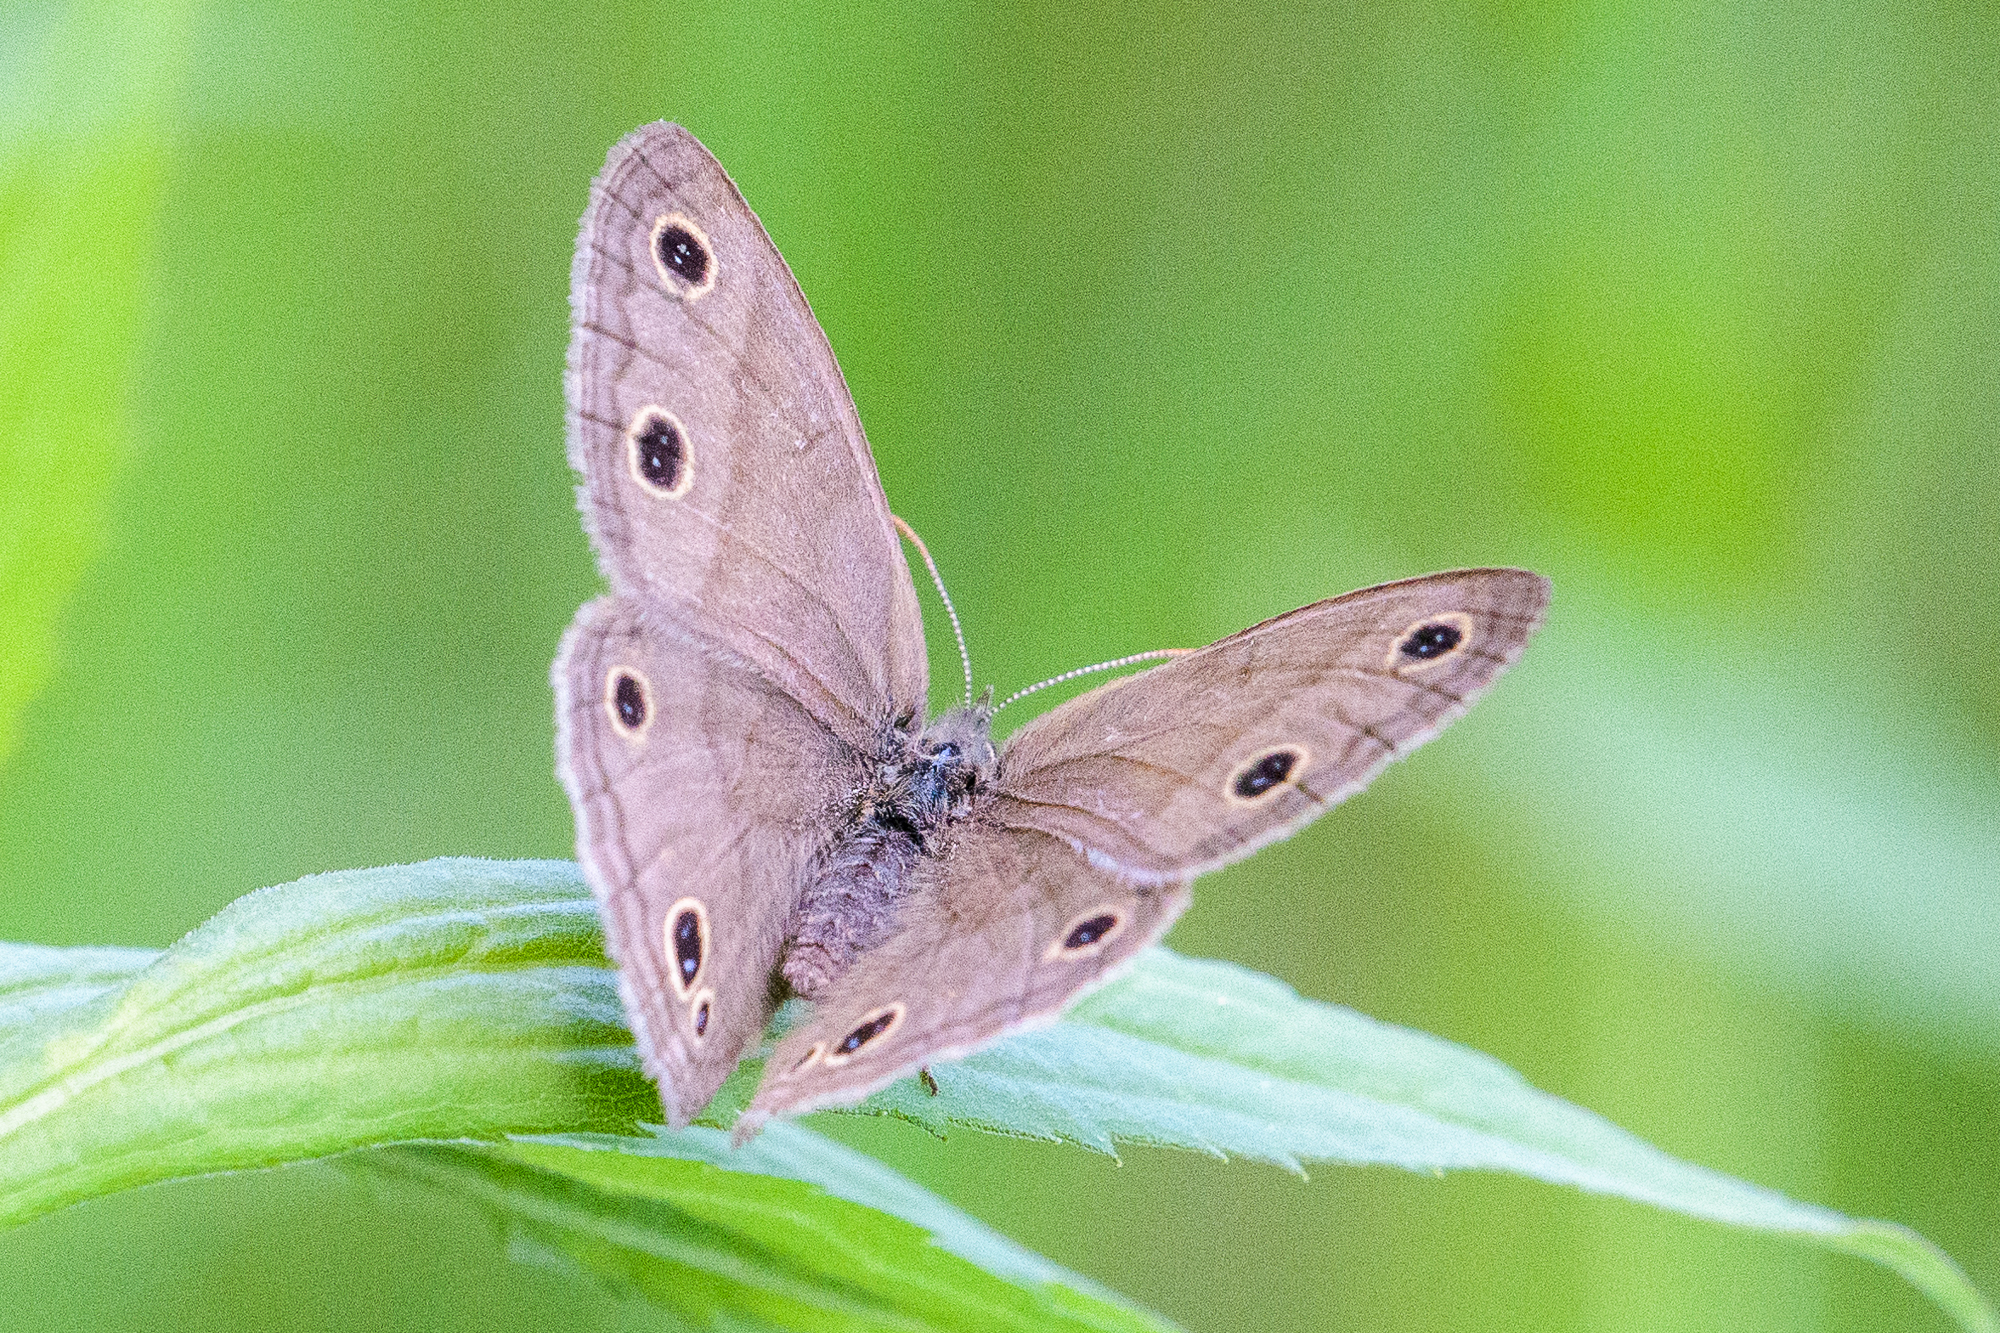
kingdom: Animalia
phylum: Arthropoda
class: Insecta
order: Lepidoptera
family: Nymphalidae
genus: Euptychia
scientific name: Euptychia cymela
